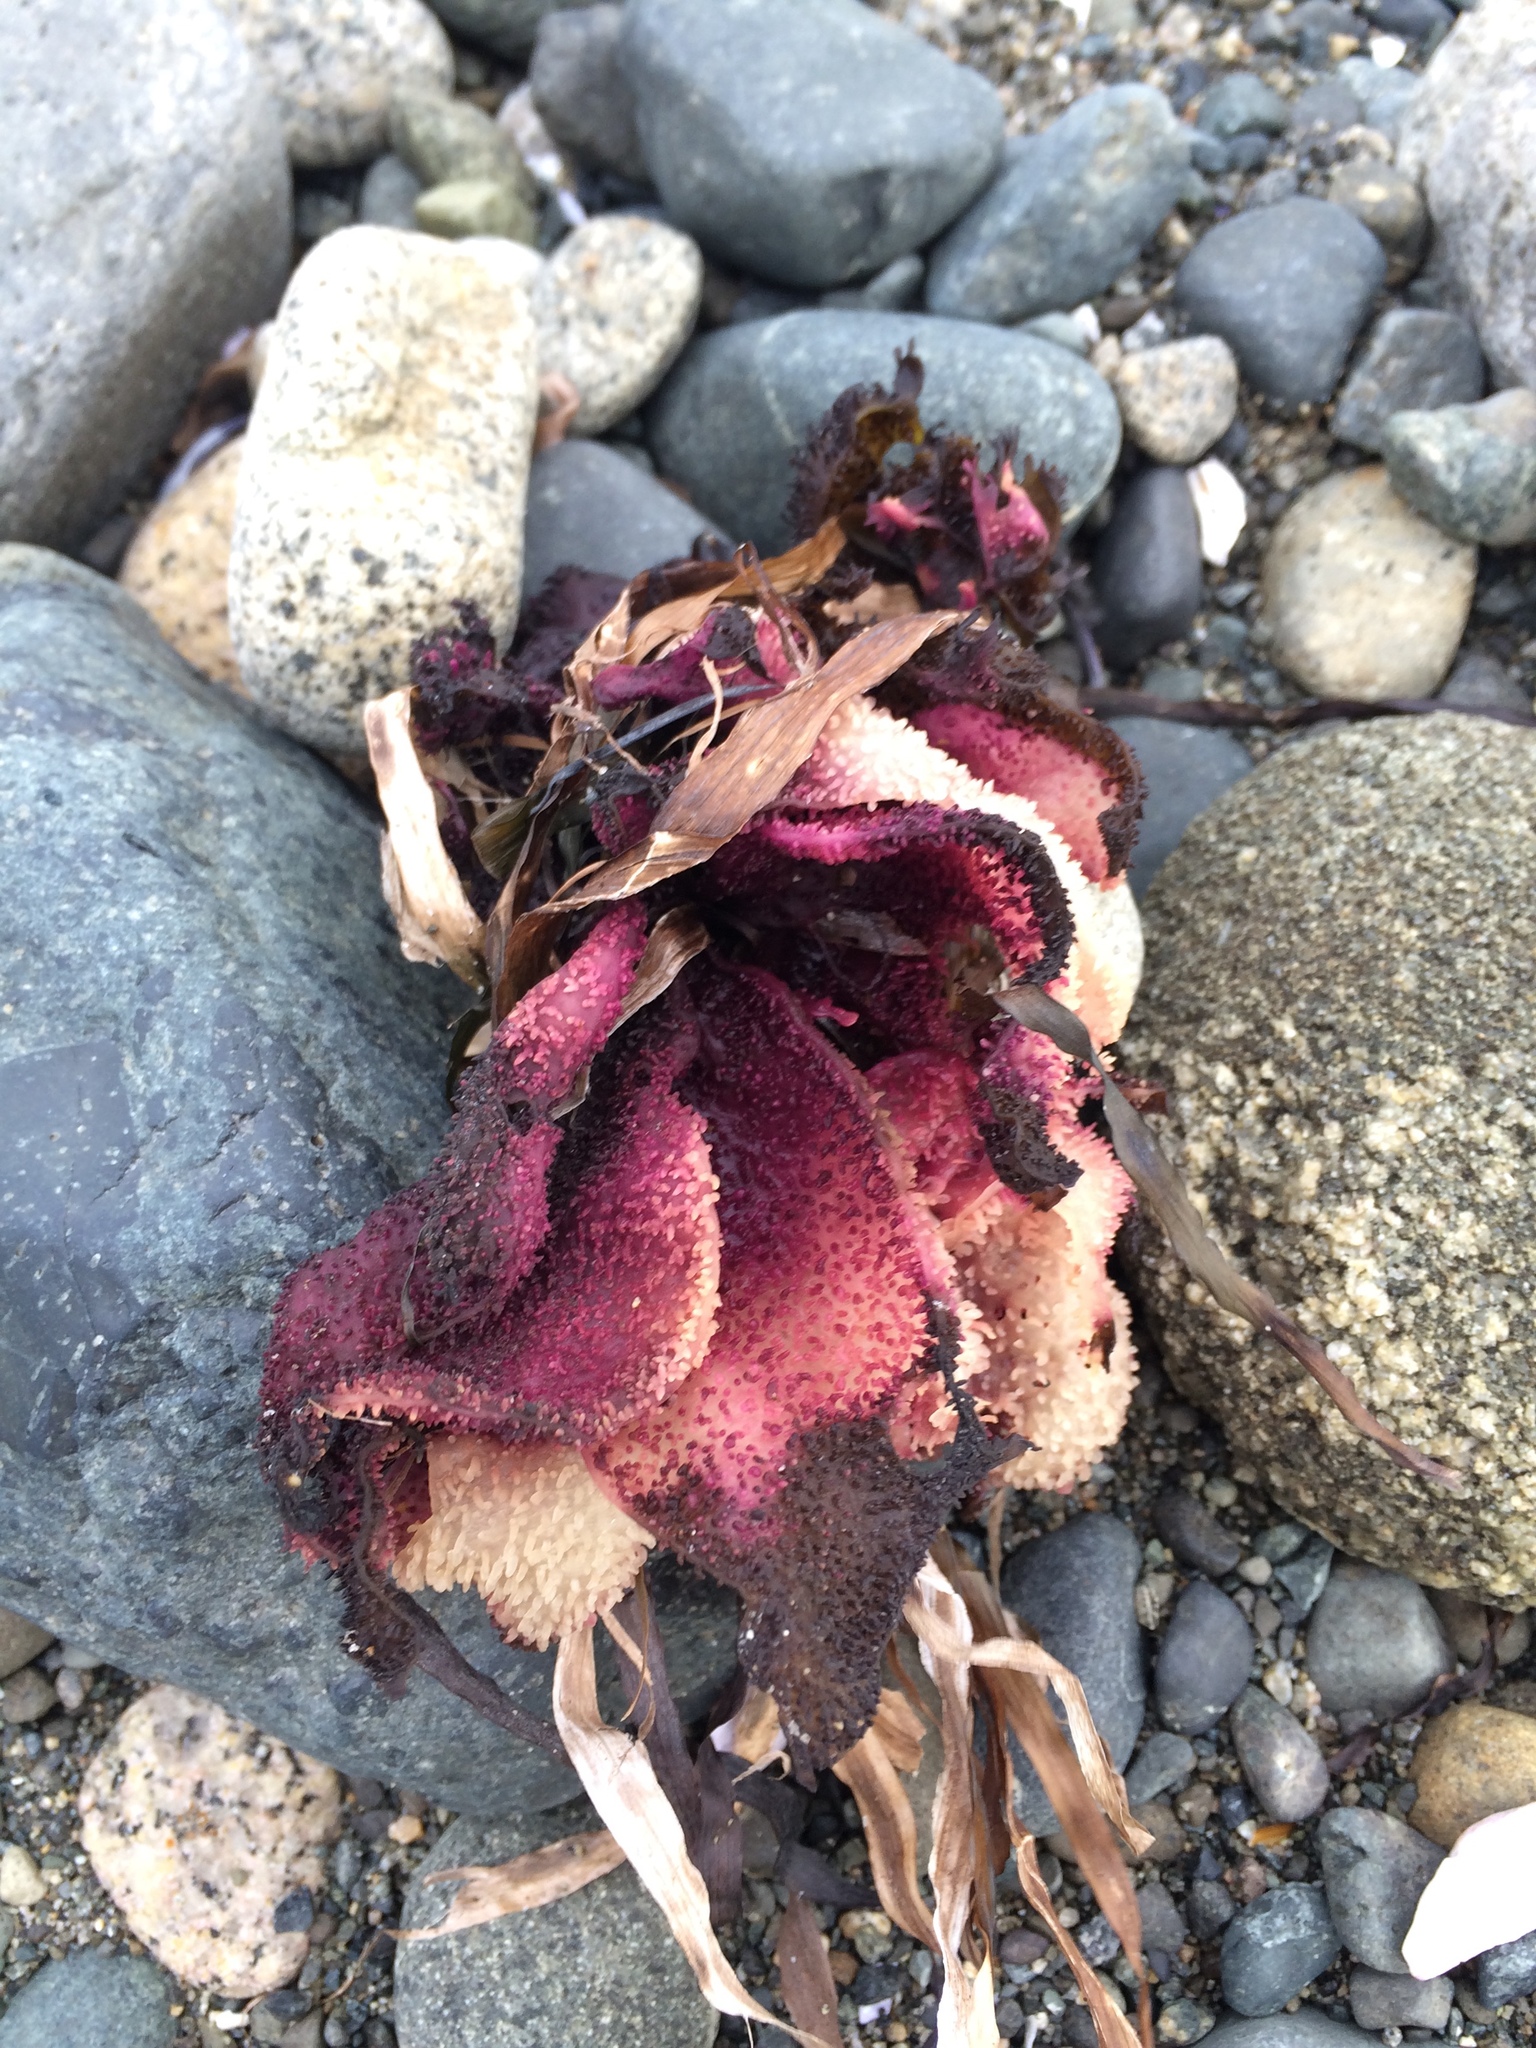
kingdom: Plantae
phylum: Rhodophyta
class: Florideophyceae
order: Gigartinales
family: Gigartinaceae
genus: Chondracanthus
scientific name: Chondracanthus exasperatus
